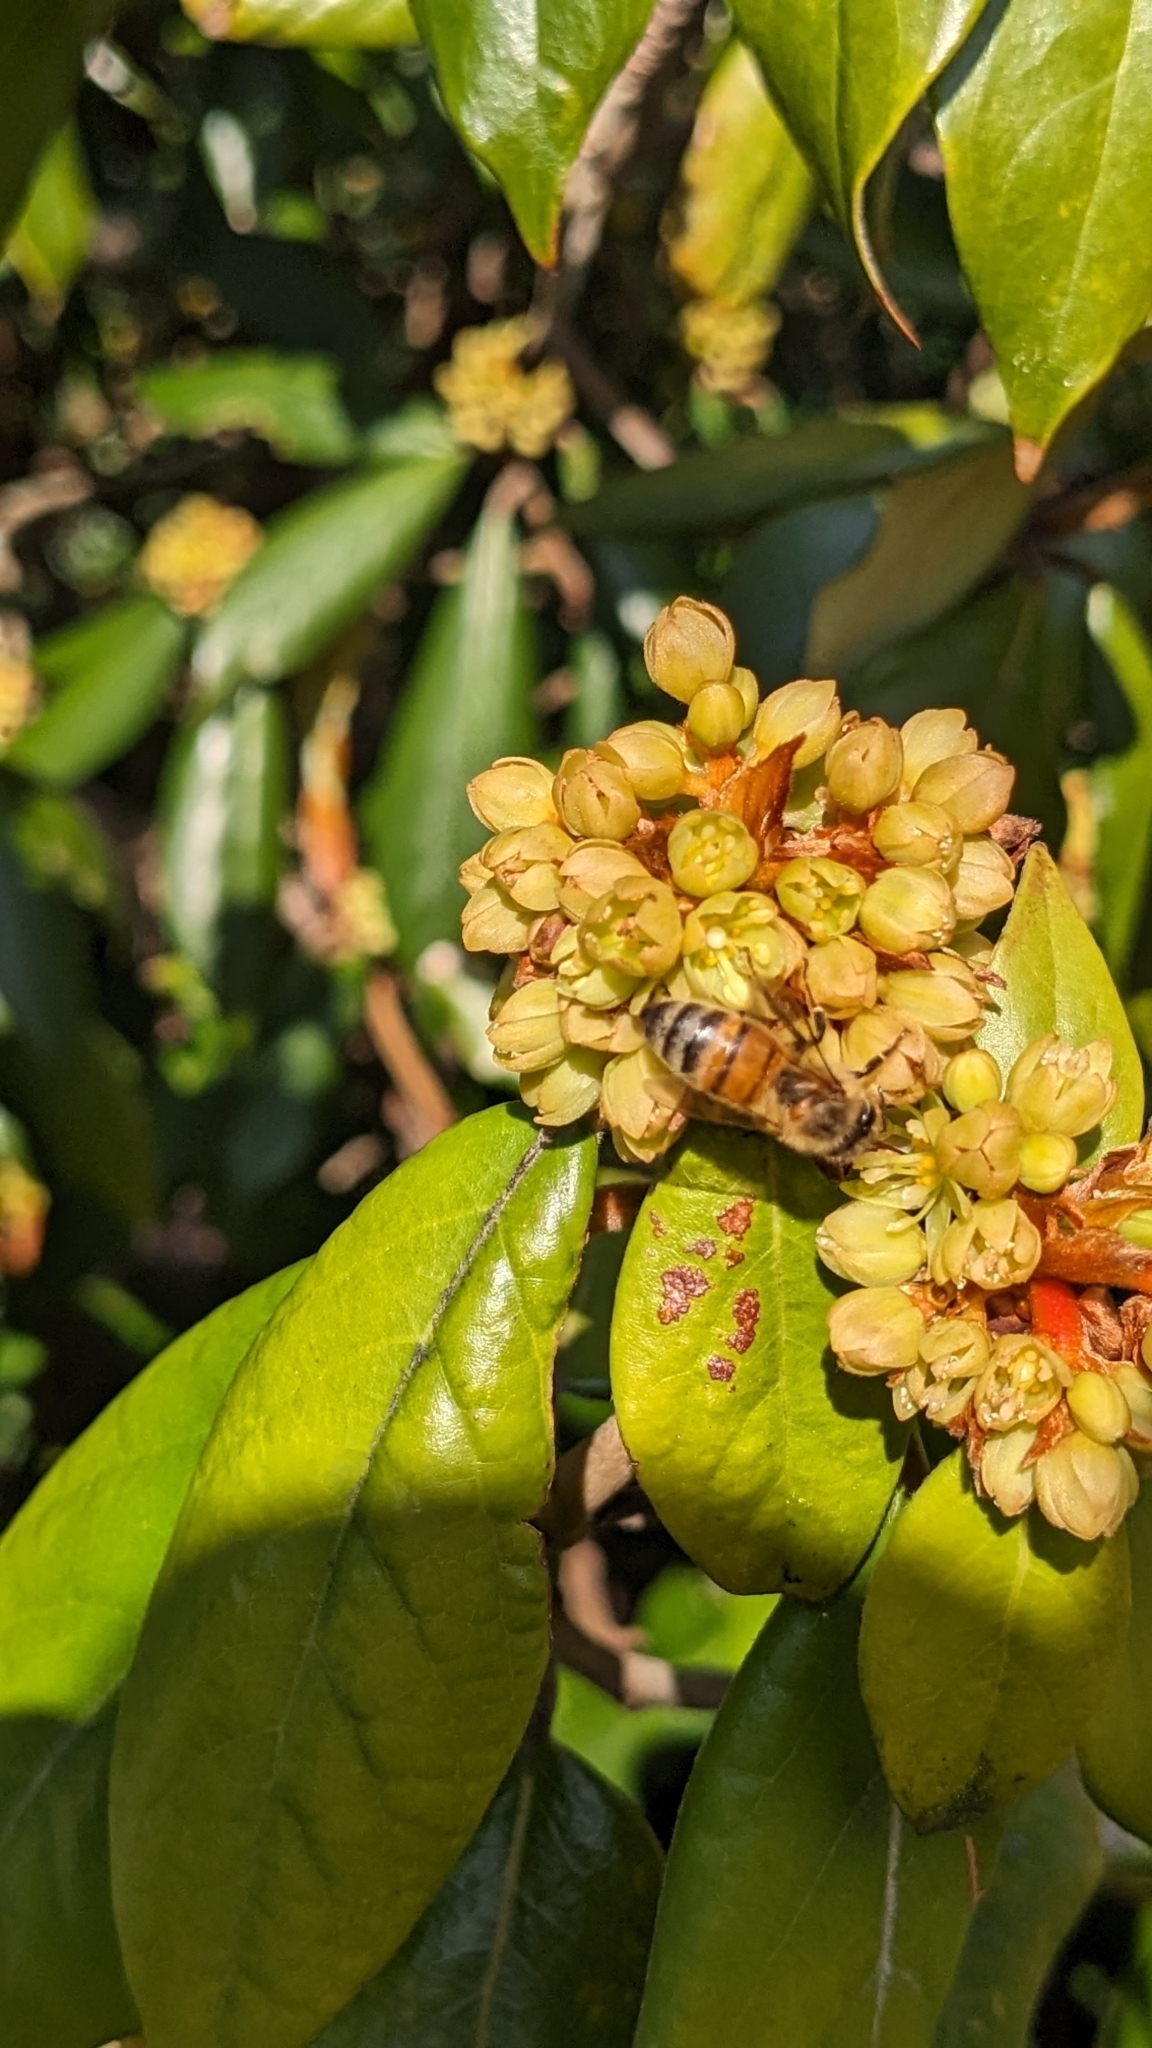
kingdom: Animalia
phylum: Arthropoda
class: Insecta
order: Hymenoptera
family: Apidae
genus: Apis
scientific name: Apis mellifera
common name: Honey bee
